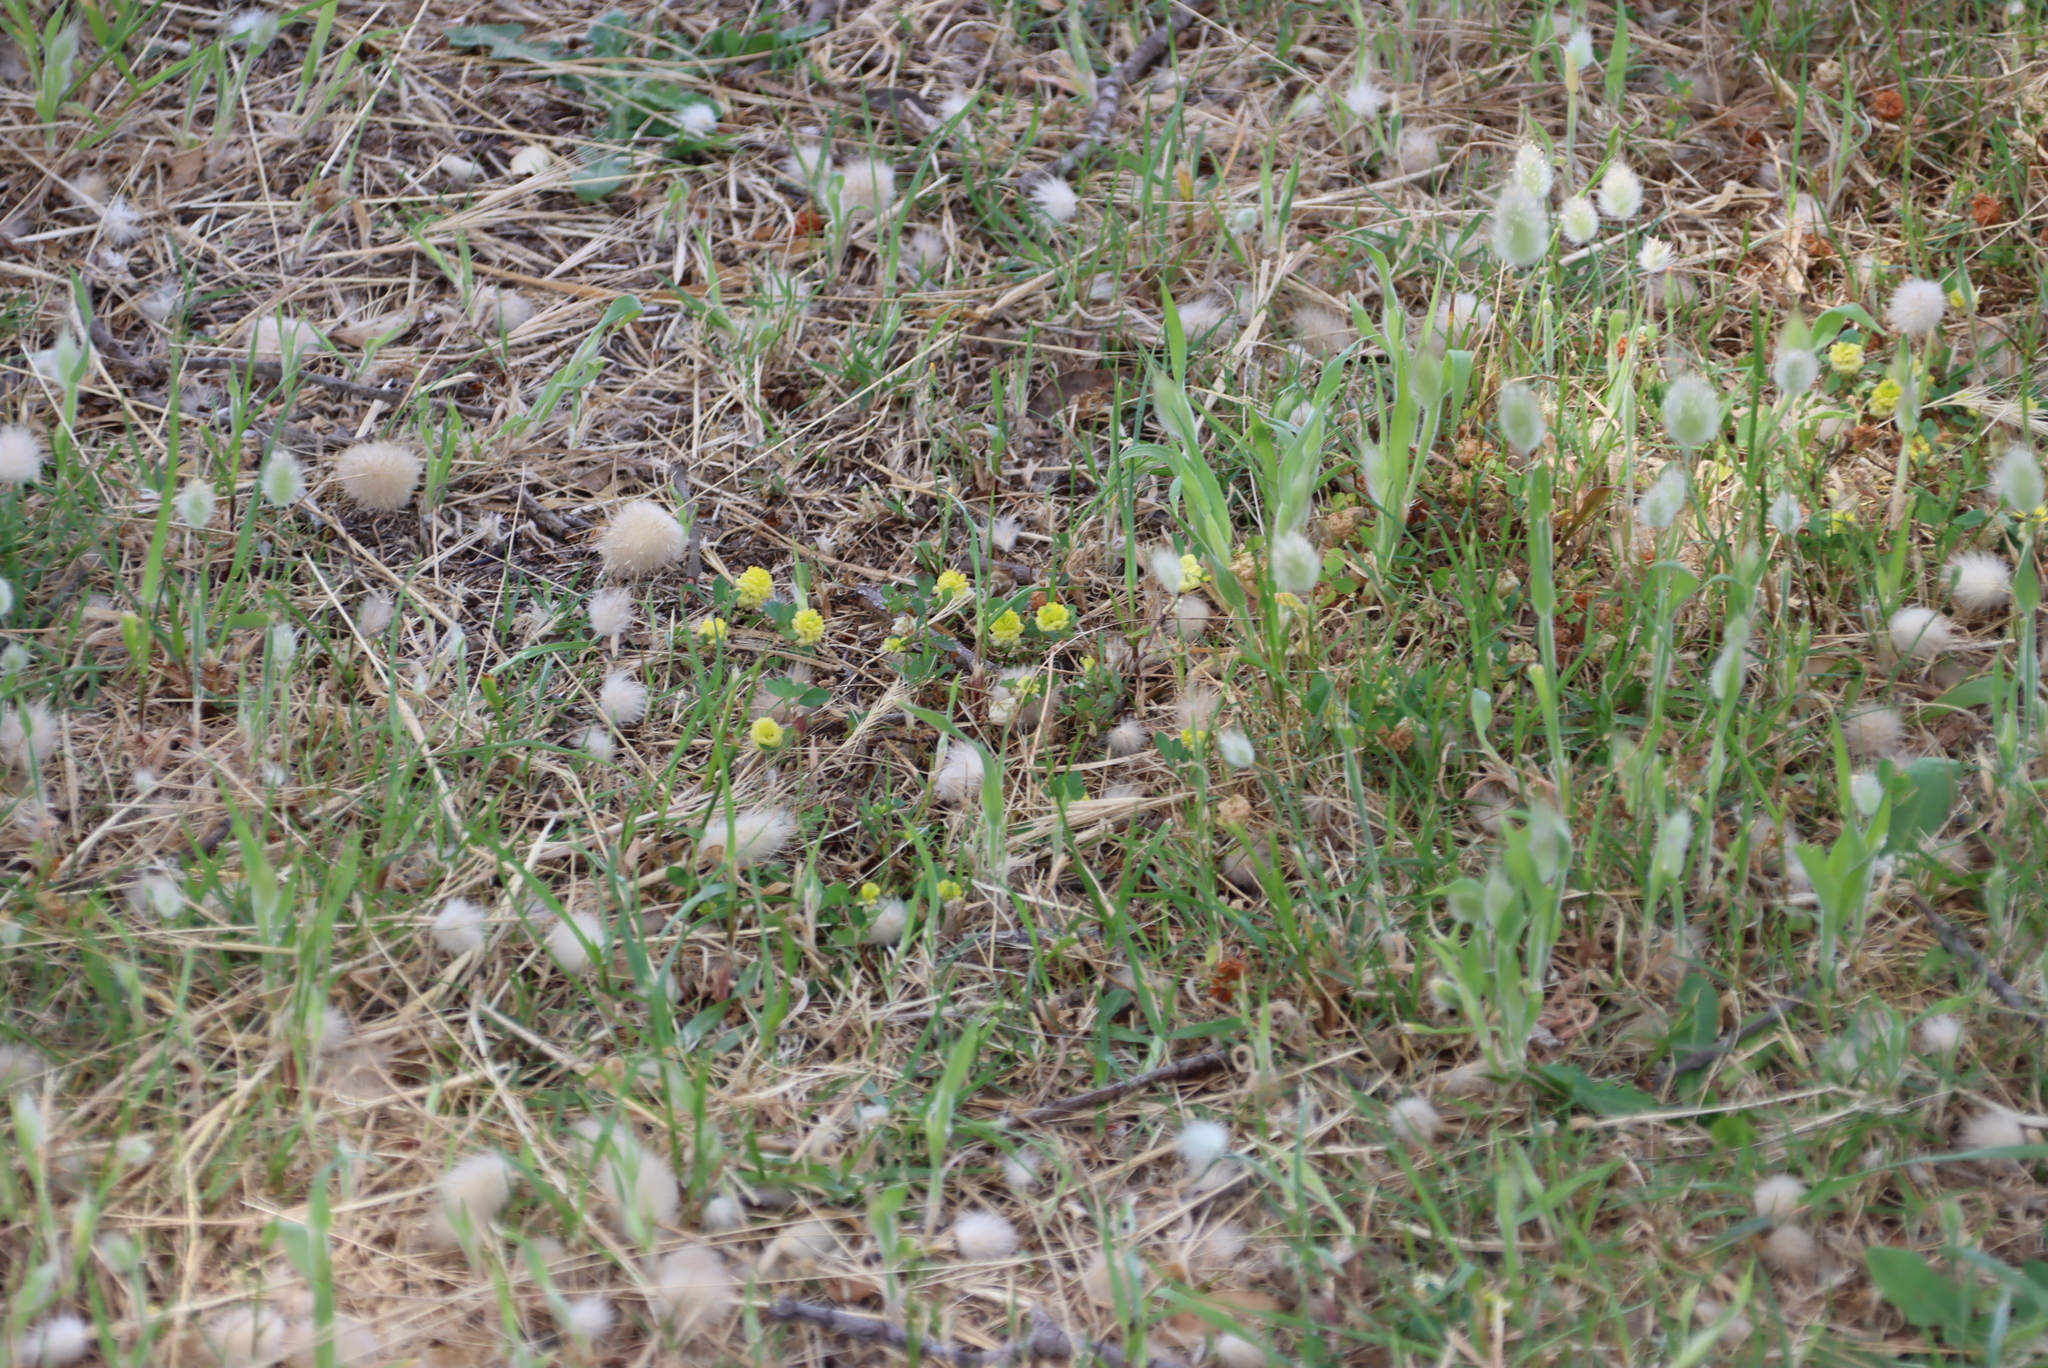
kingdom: Plantae
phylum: Tracheophyta
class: Liliopsida
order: Poales
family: Poaceae
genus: Lagurus
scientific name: Lagurus ovatus
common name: Hare's-tail
